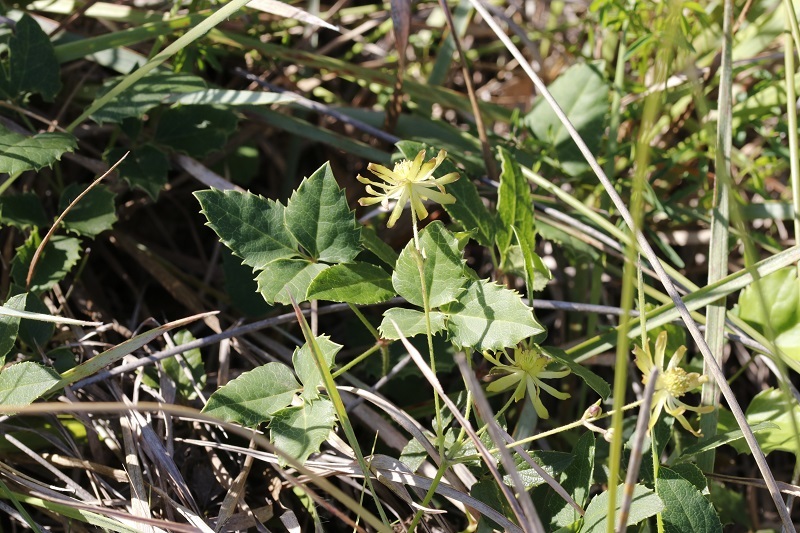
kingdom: Plantae
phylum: Tracheophyta
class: Magnoliopsida
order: Ranunculales
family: Ranunculaceae
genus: Knowltonia
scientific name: Knowltonia vesicatoria
